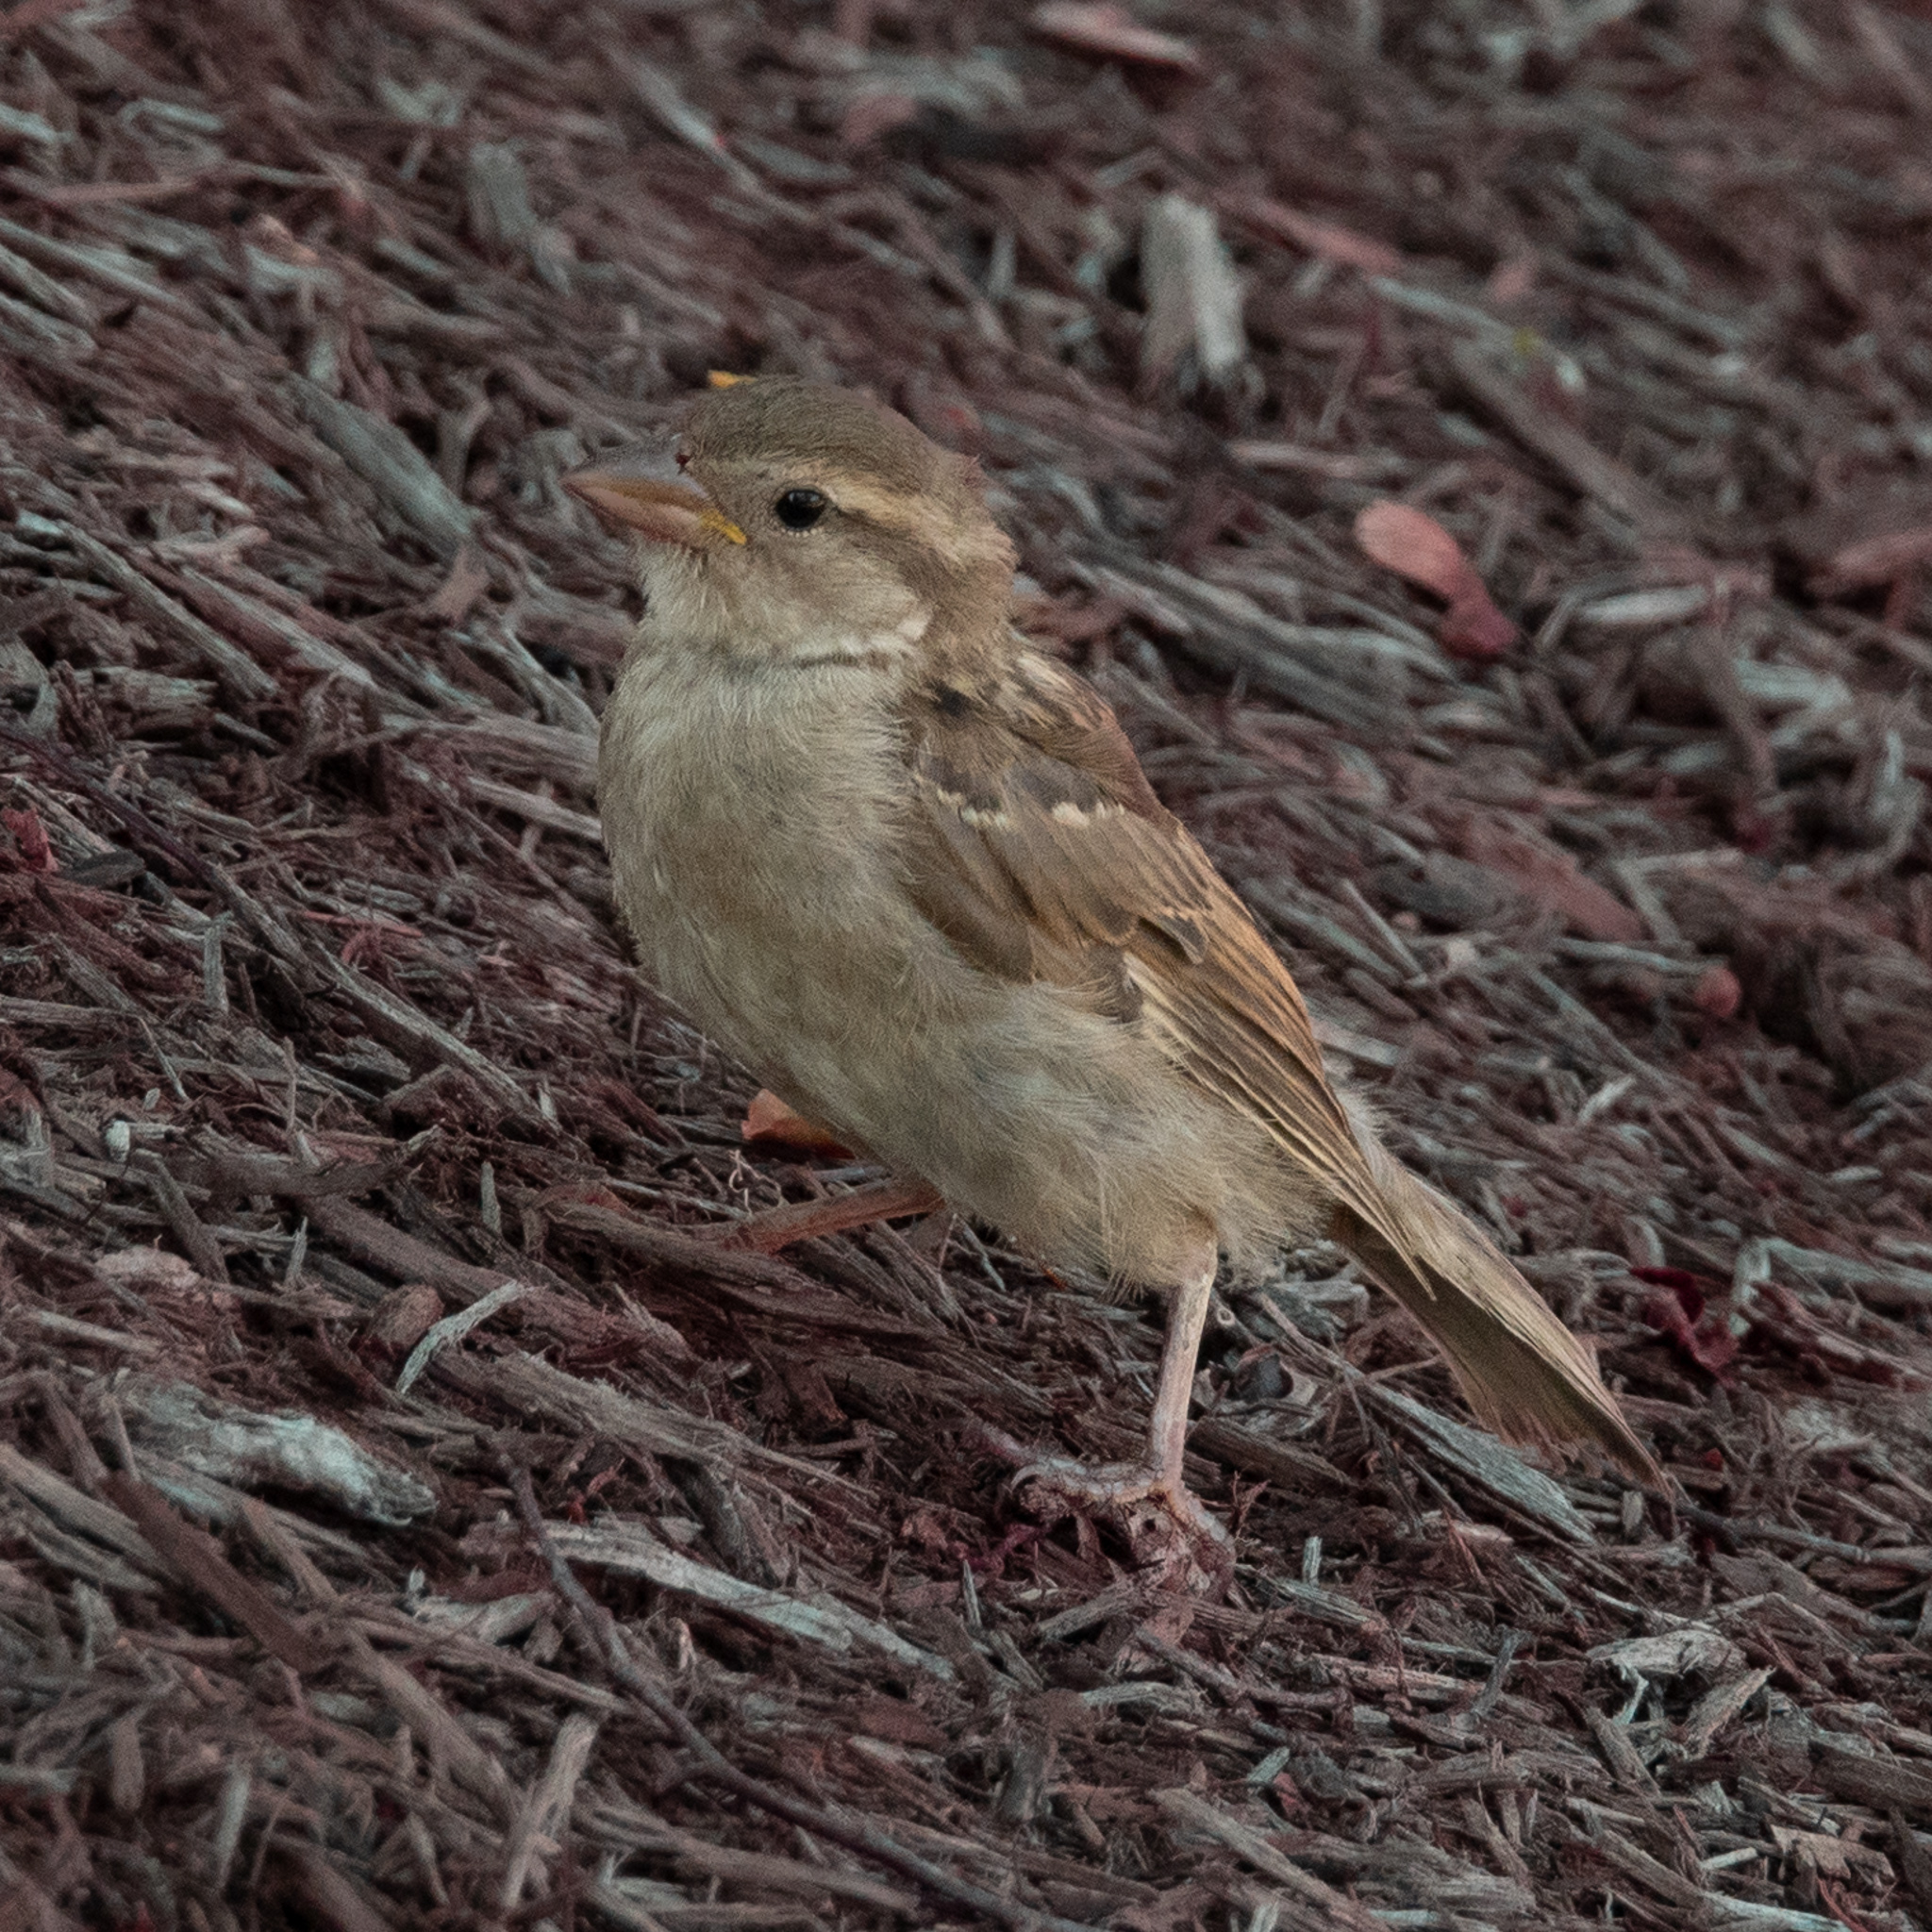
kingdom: Animalia
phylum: Chordata
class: Aves
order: Passeriformes
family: Passeridae
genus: Passer
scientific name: Passer domesticus
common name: House sparrow
